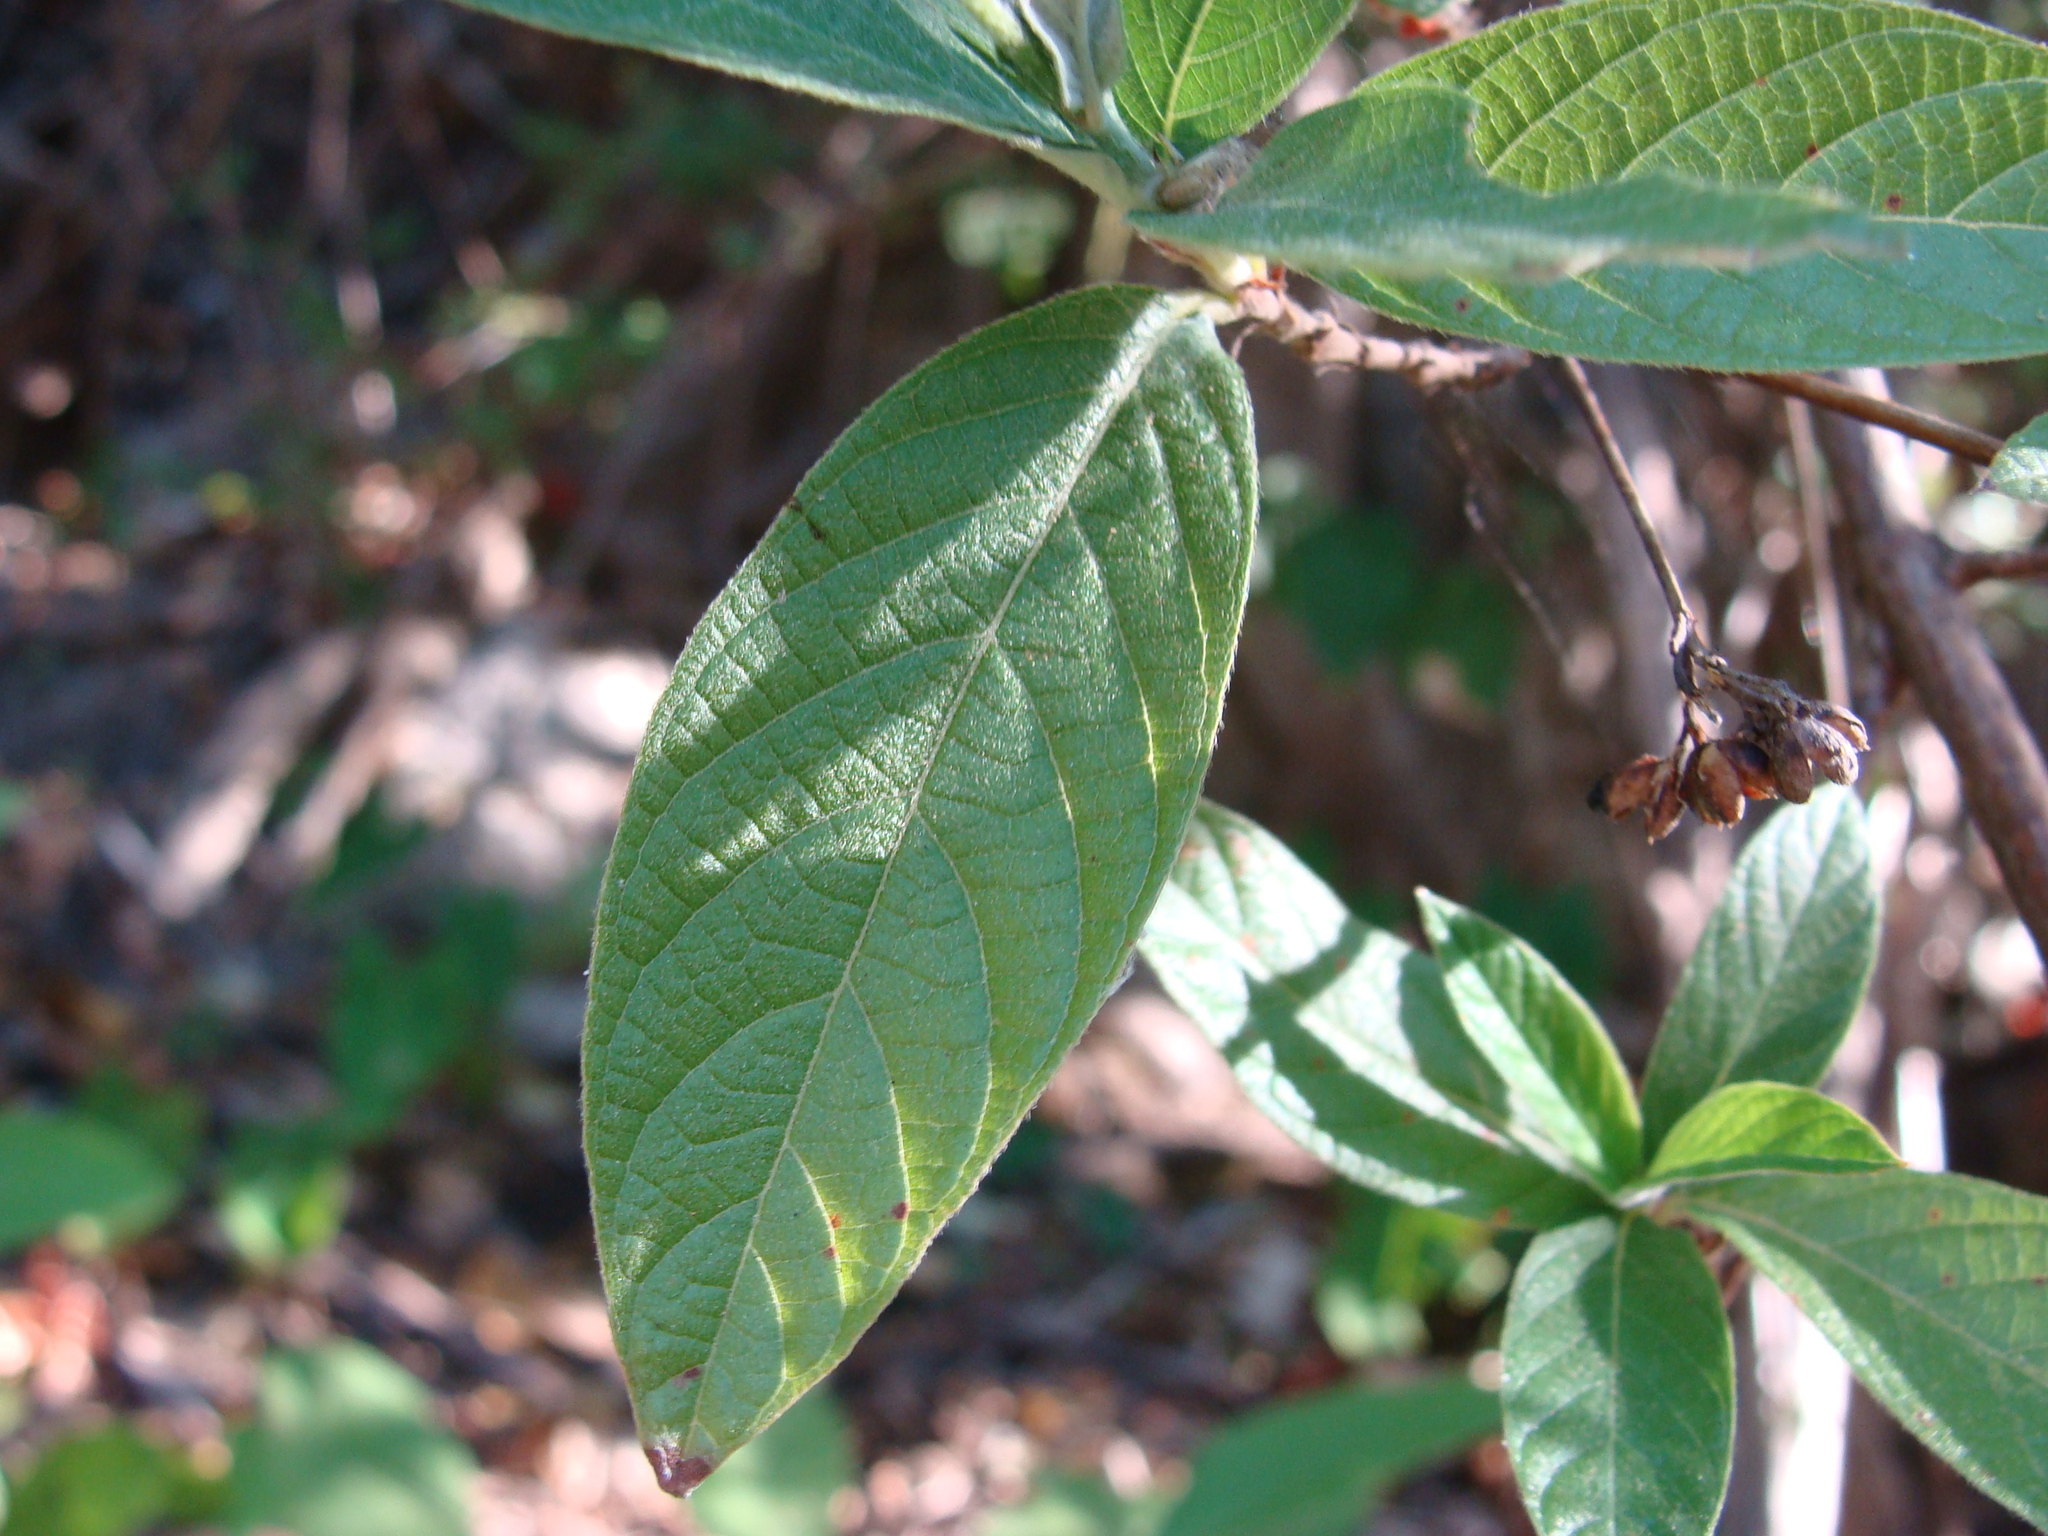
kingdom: Plantae
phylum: Tracheophyta
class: Magnoliopsida
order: Gentianales
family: Rubiaceae
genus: Arachnothryx
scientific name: Arachnothryx leucophylla
